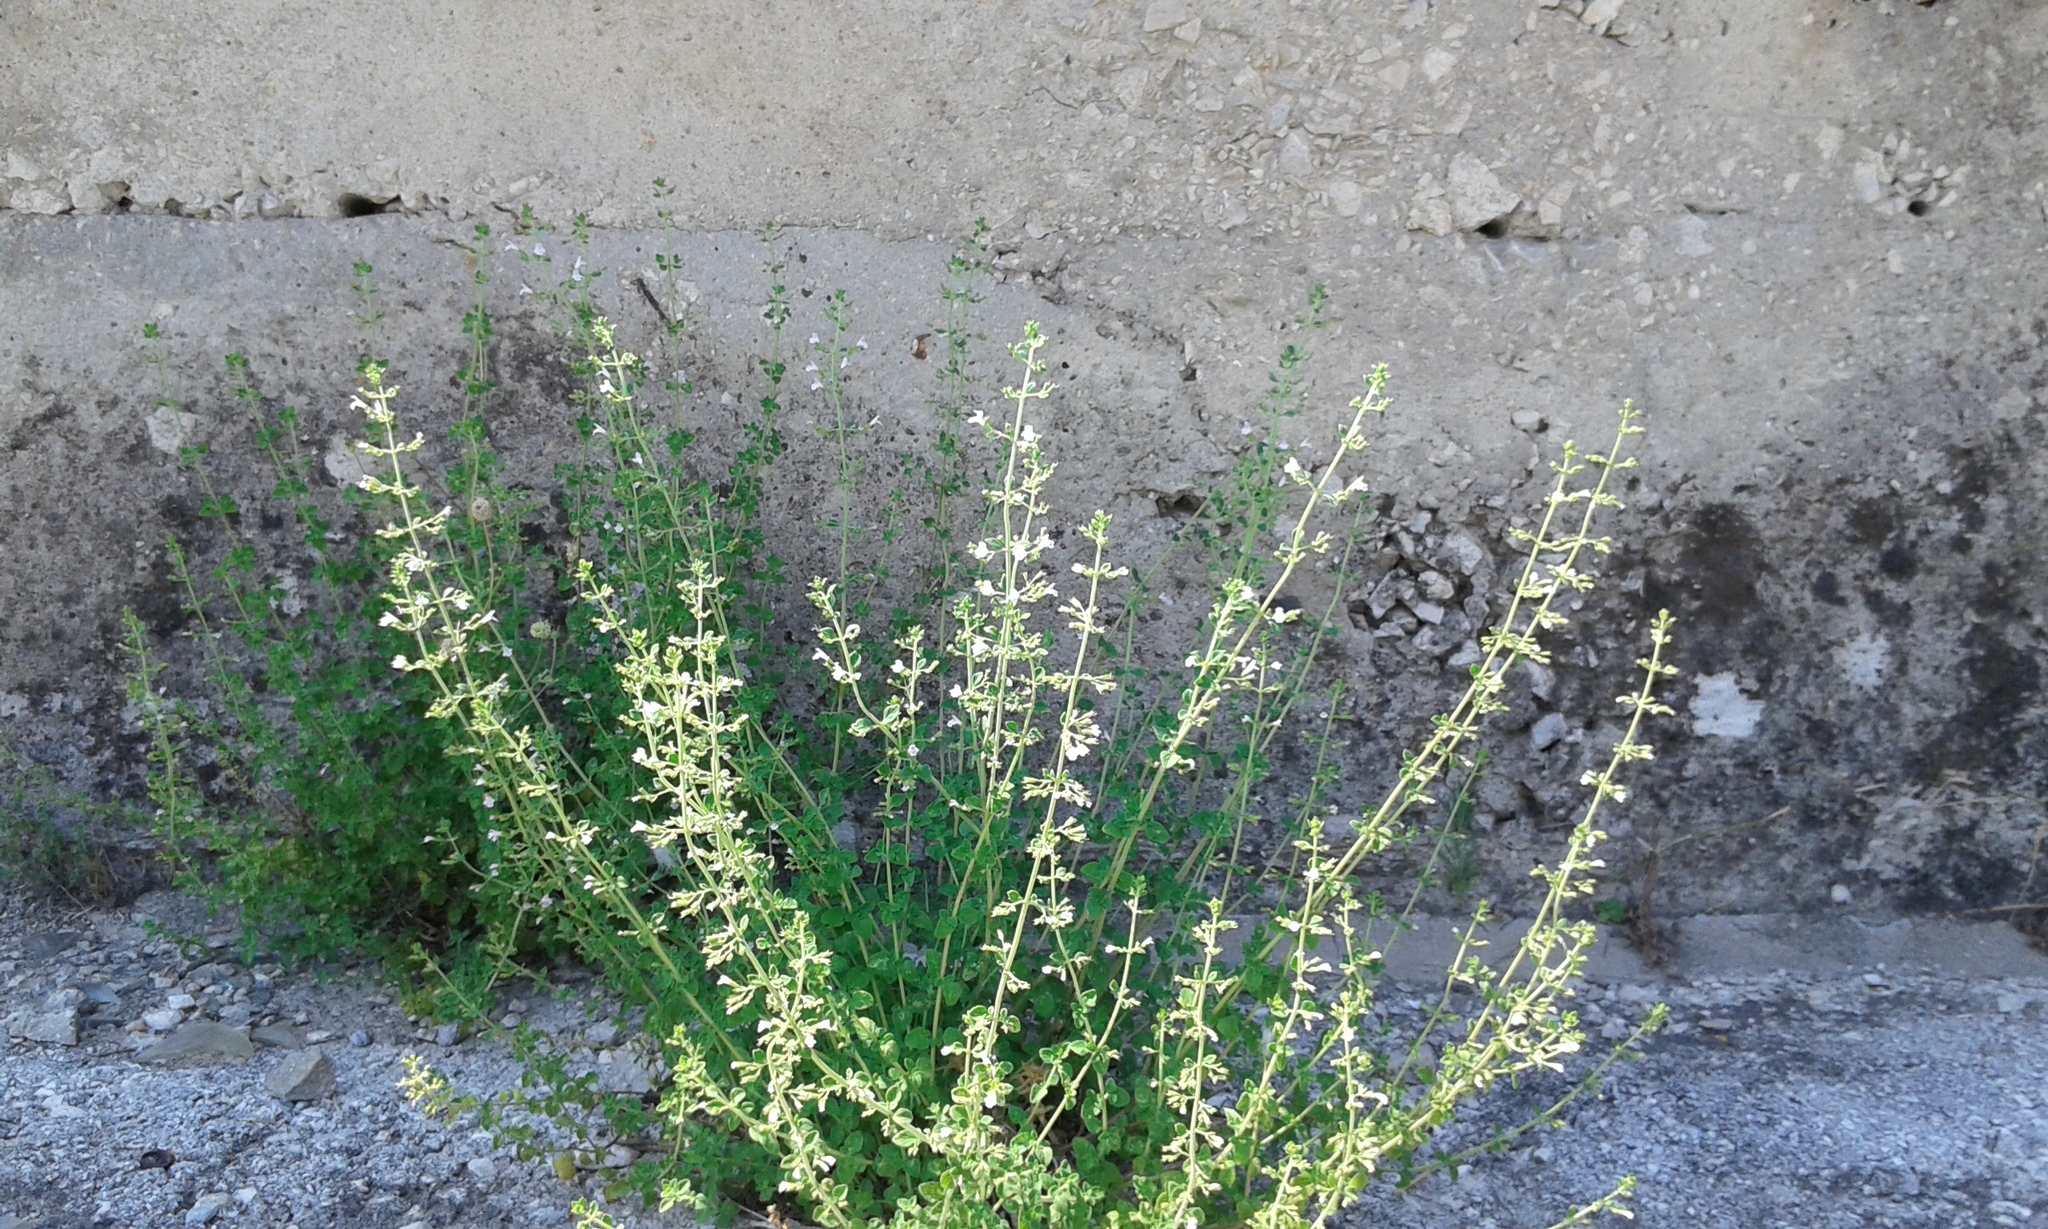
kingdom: Plantae
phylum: Tracheophyta
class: Magnoliopsida
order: Lamiales
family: Lamiaceae
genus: Clinopodium
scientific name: Clinopodium nepeta
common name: Lesser calamint
